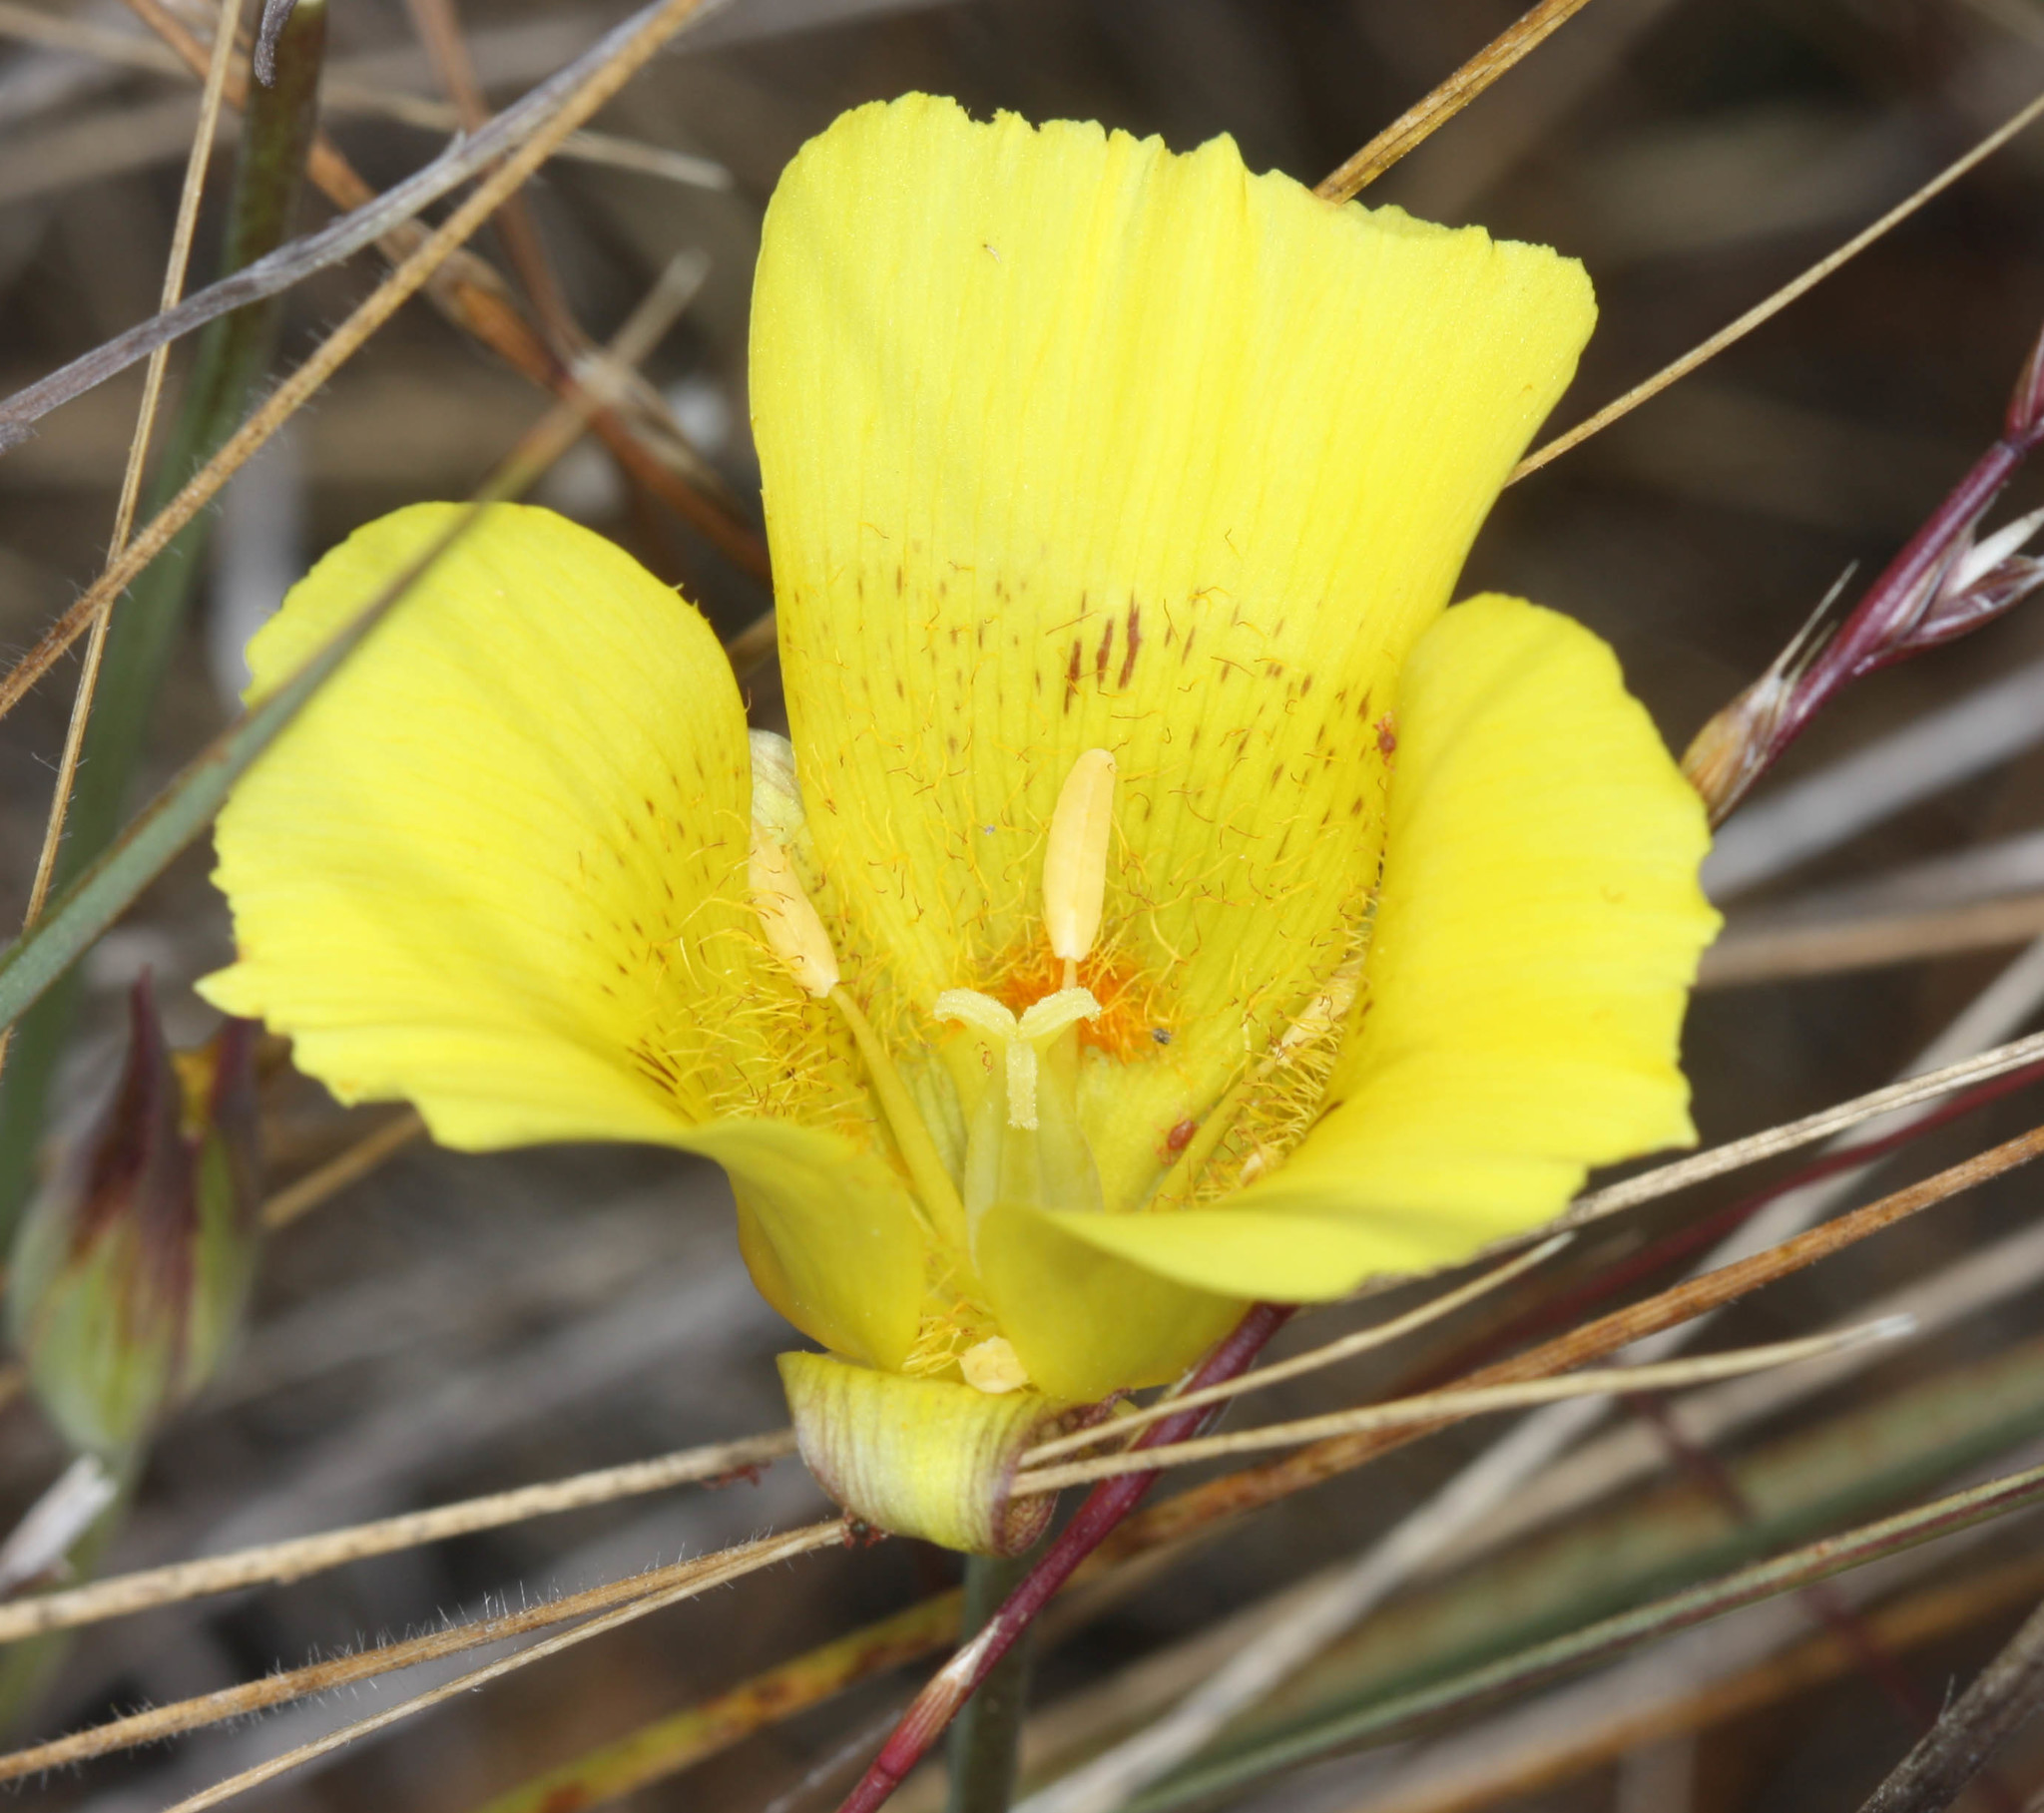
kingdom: Plantae
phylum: Tracheophyta
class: Liliopsida
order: Liliales
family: Liliaceae
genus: Calochortus
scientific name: Calochortus luteus
